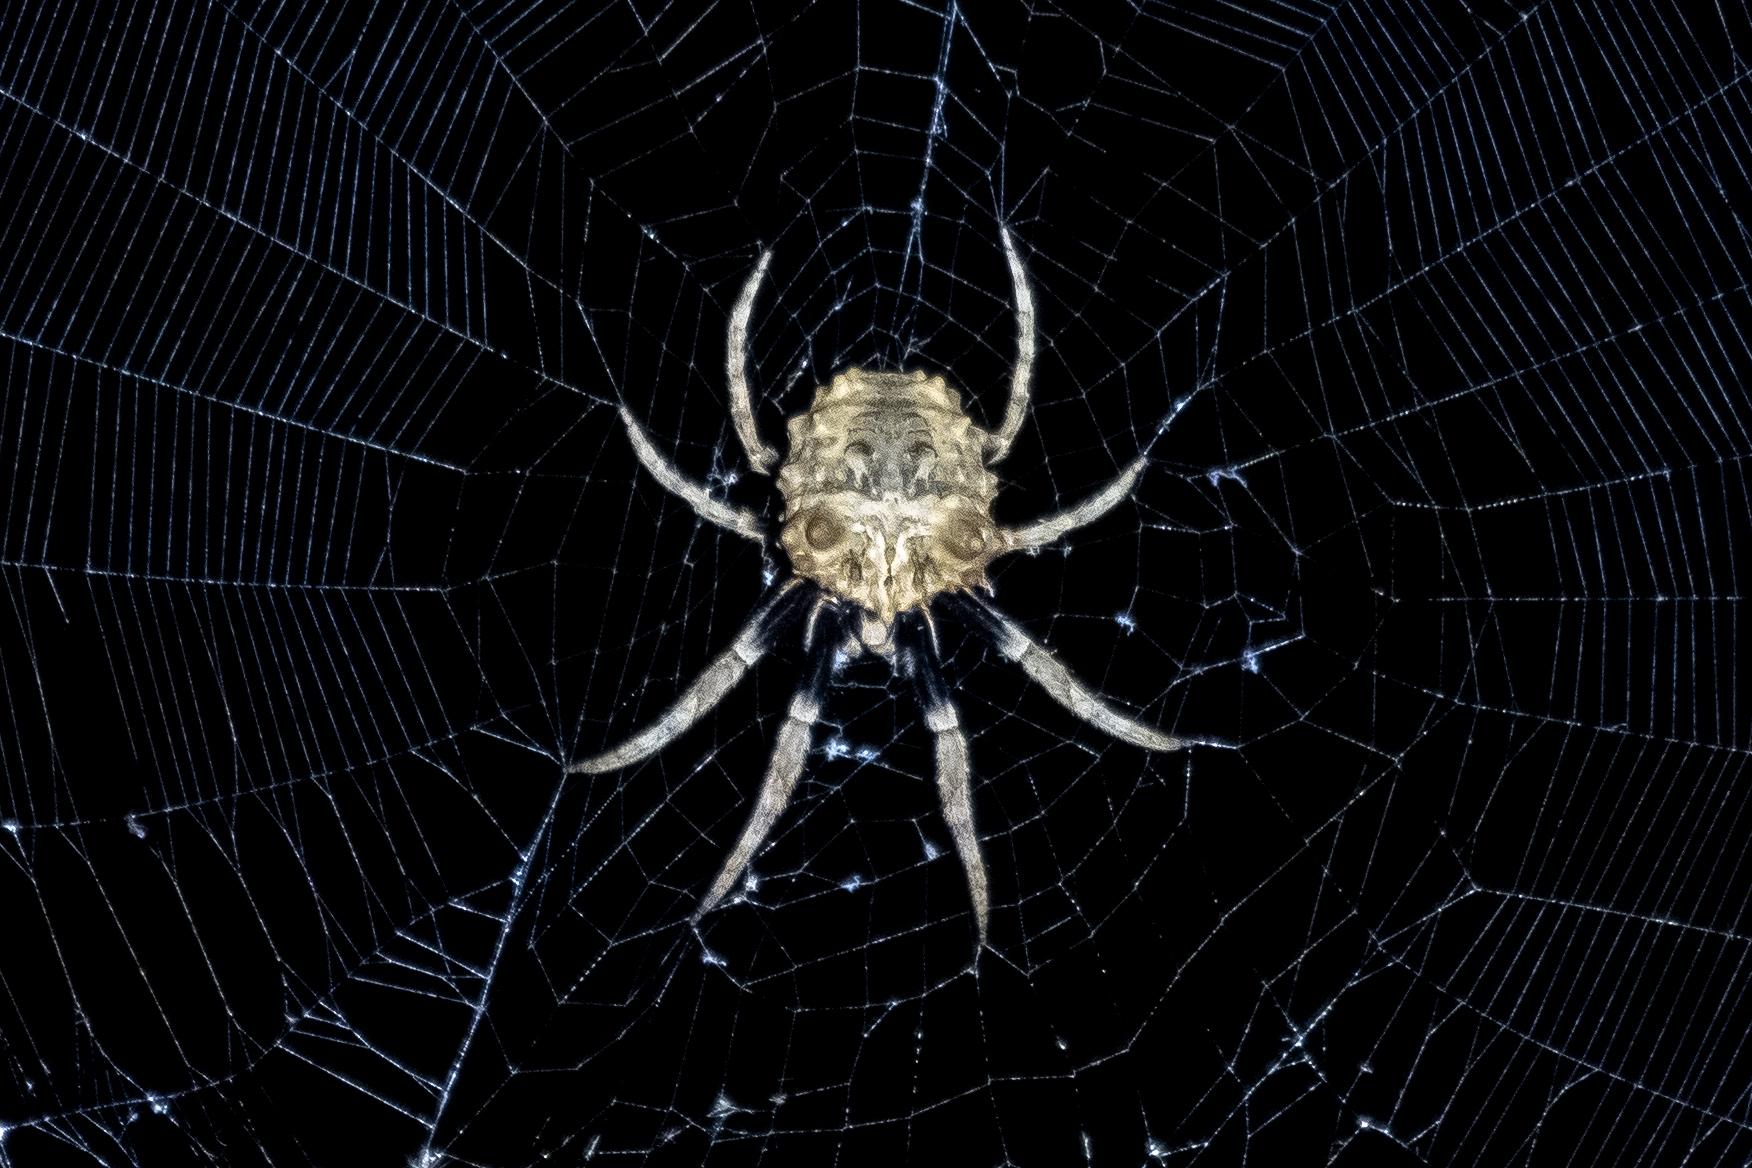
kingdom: Animalia
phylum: Arthropoda
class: Arachnida
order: Araneae
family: Araneidae
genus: Poltys
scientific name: Poltys illepidus
